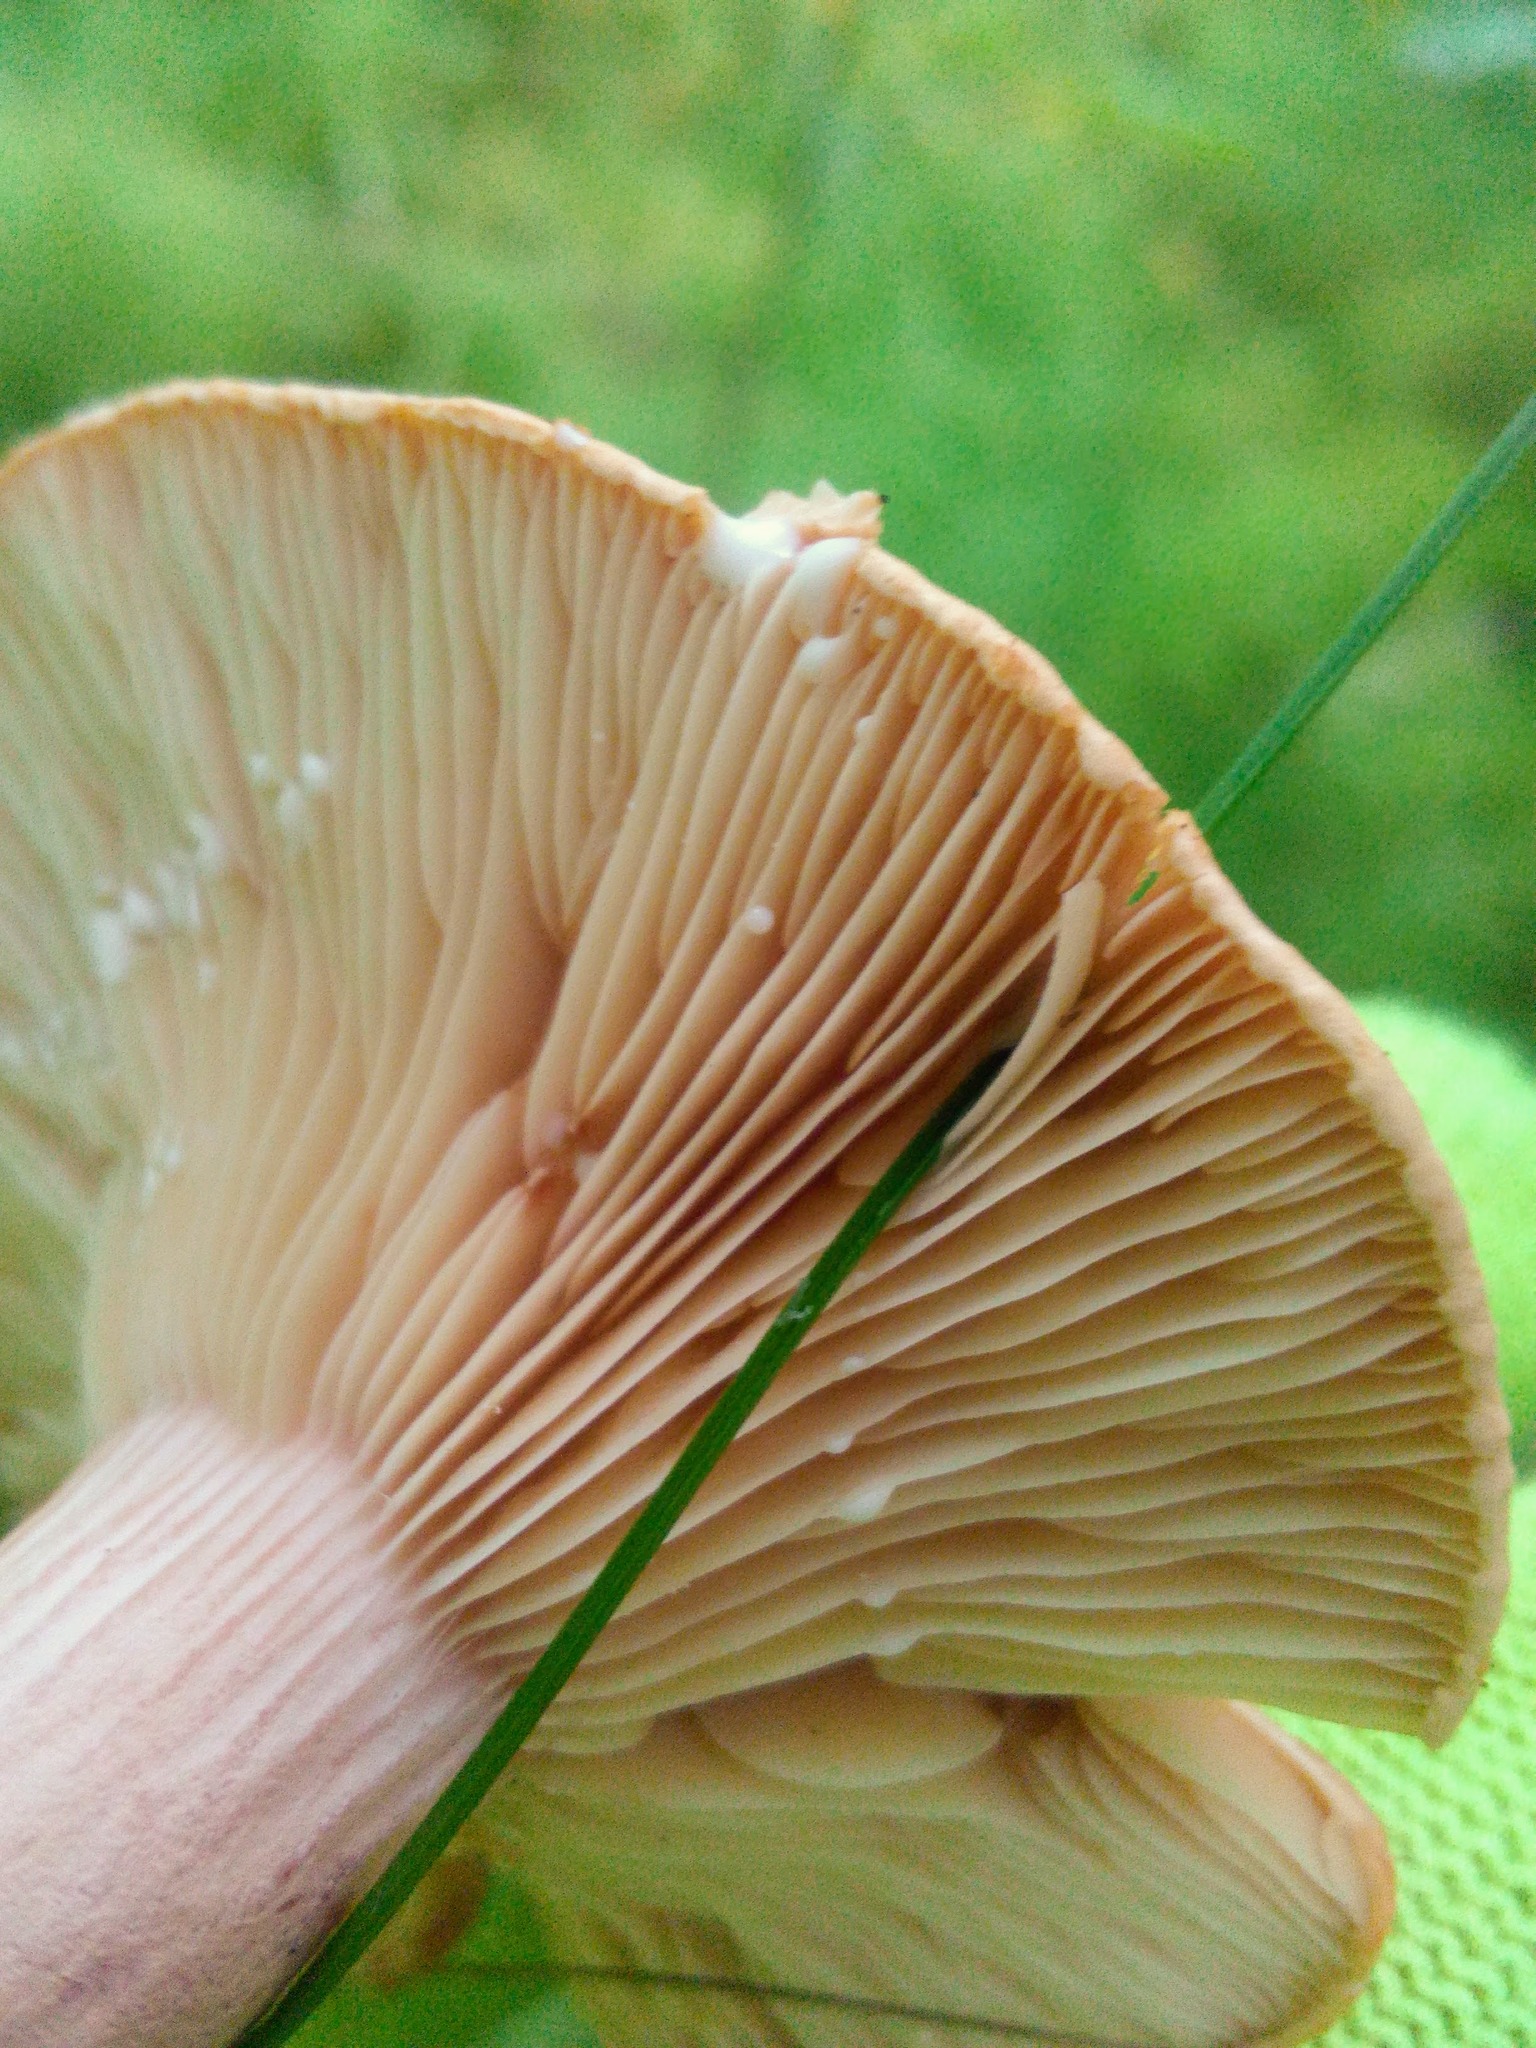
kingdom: Fungi
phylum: Basidiomycota
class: Agaricomycetes
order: Russulales
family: Russulaceae
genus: Lactarius
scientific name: Lactarius rufus
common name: Rufous milk-cap
